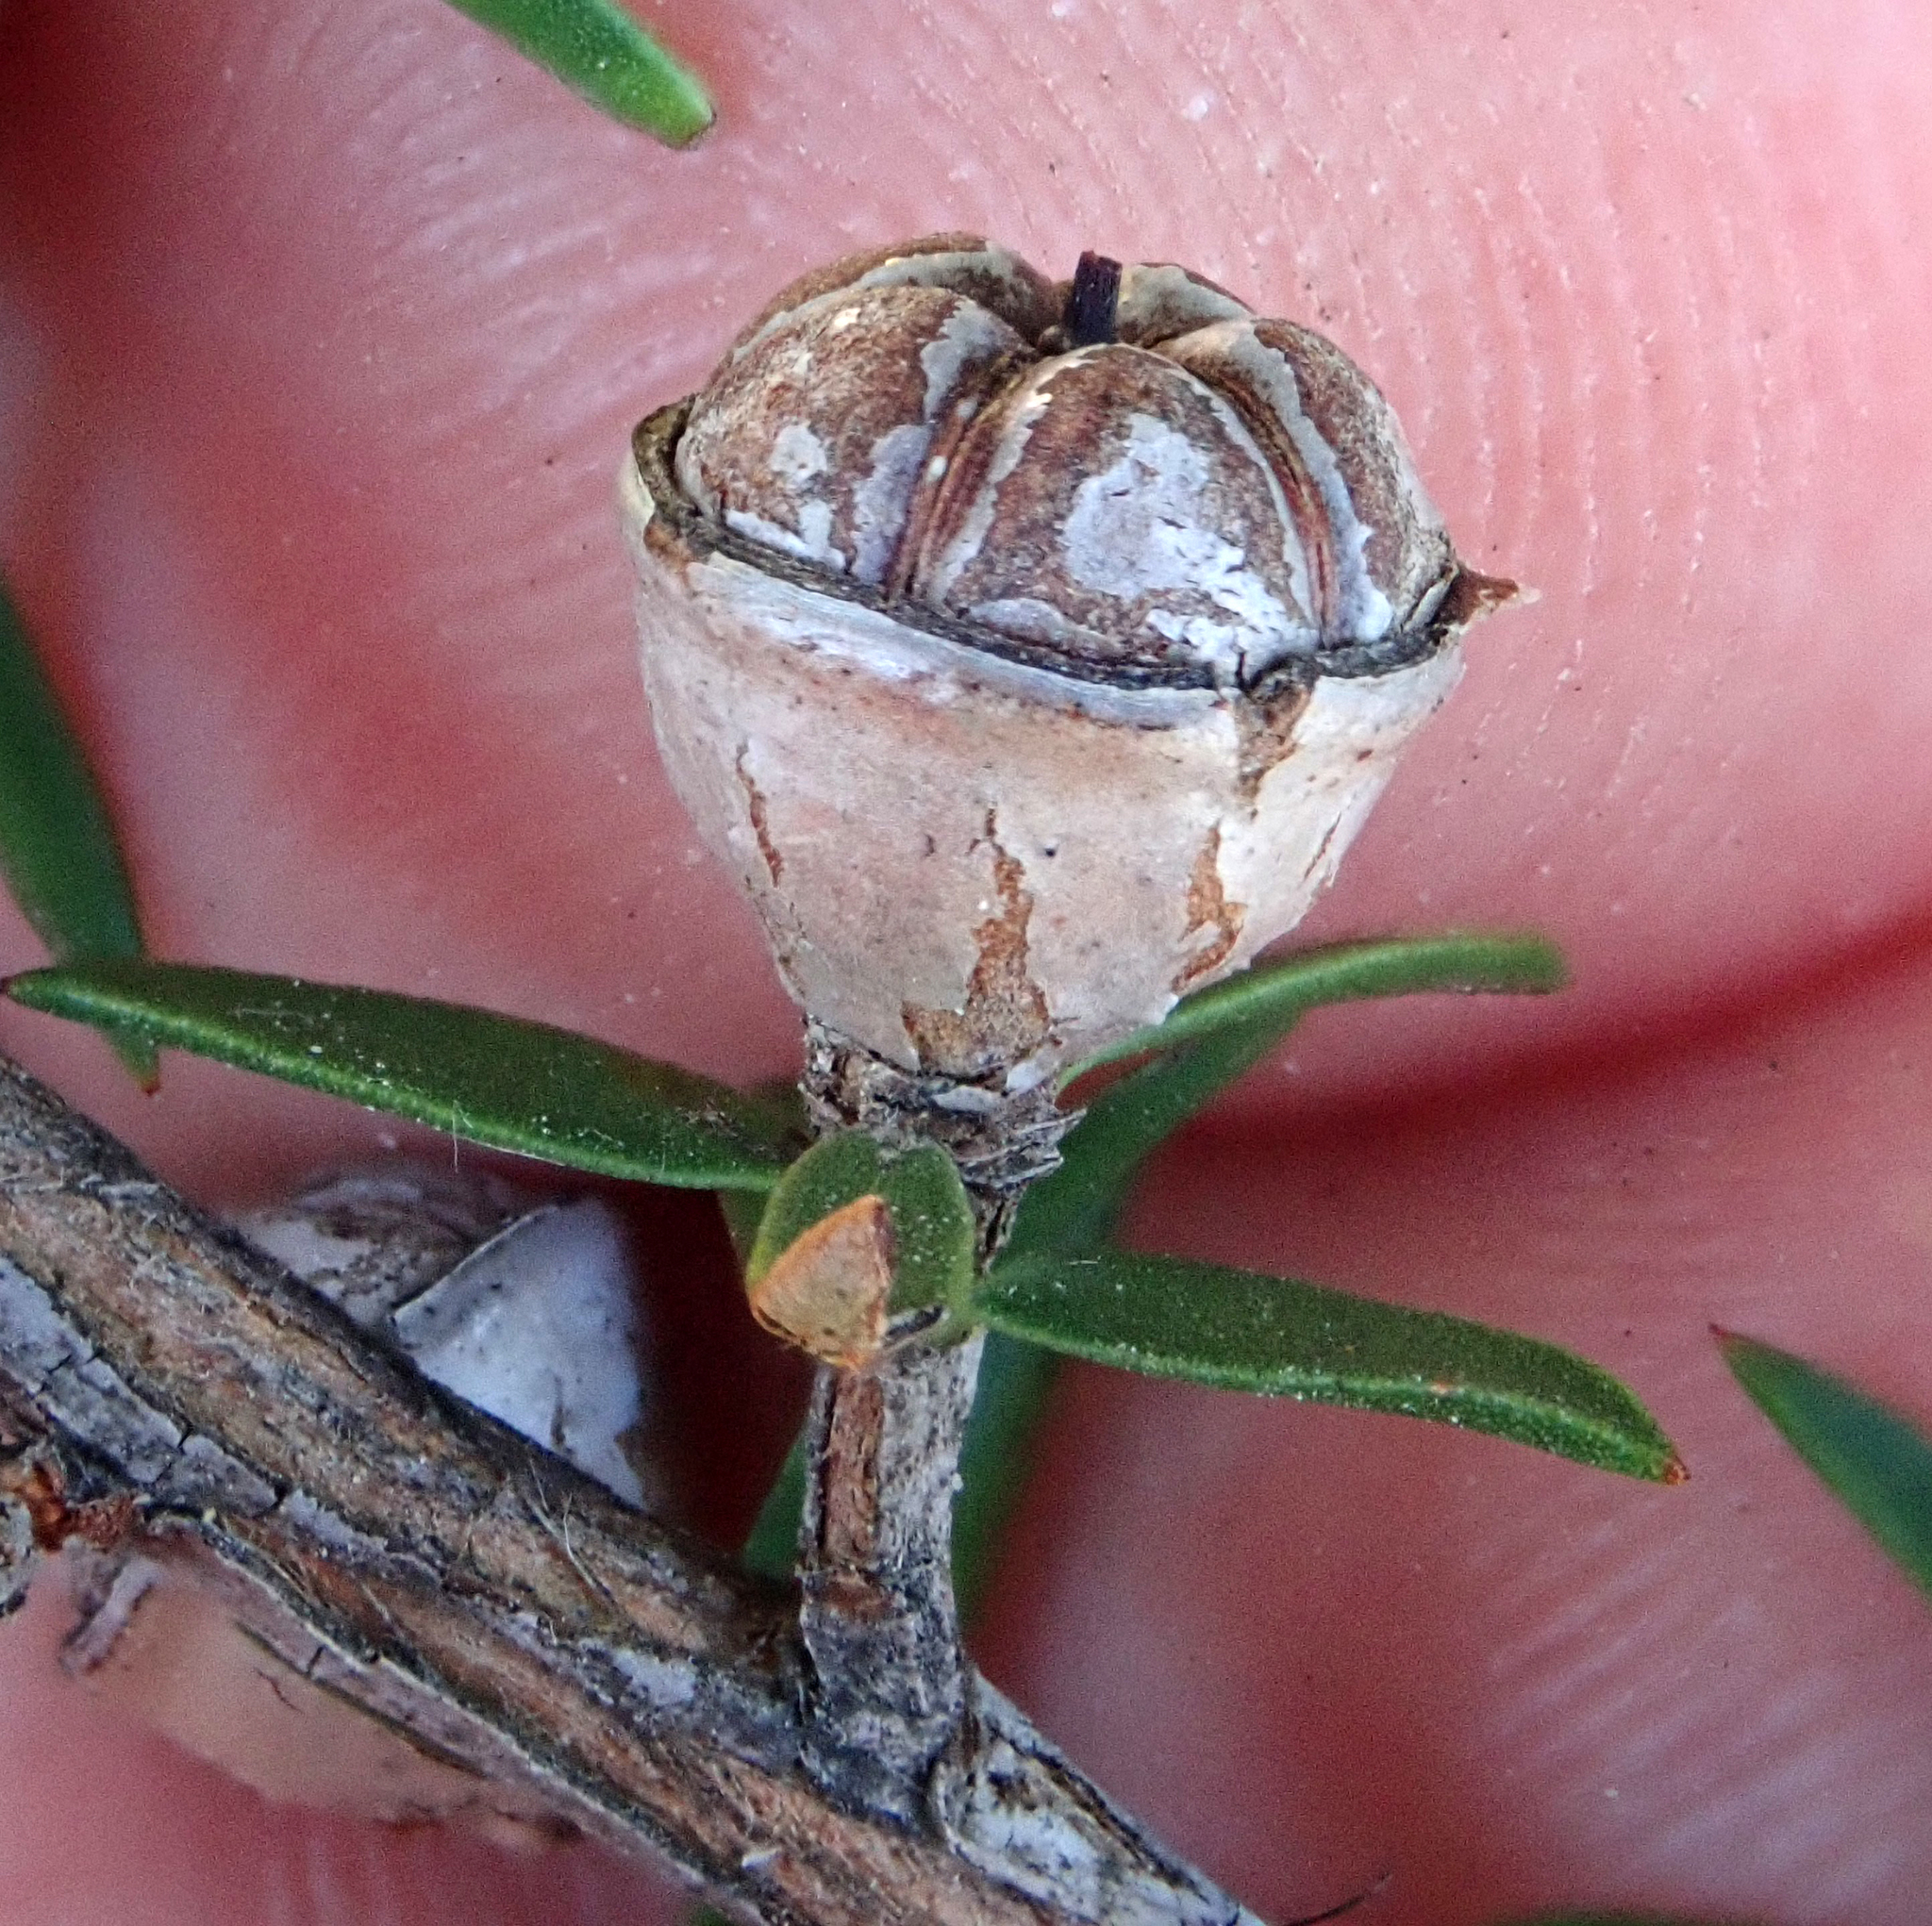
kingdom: Plantae
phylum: Tracheophyta
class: Magnoliopsida
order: Myrtales
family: Myrtaceae
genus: Leptospermum
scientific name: Leptospermum scoparium
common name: Broom tea-tree
